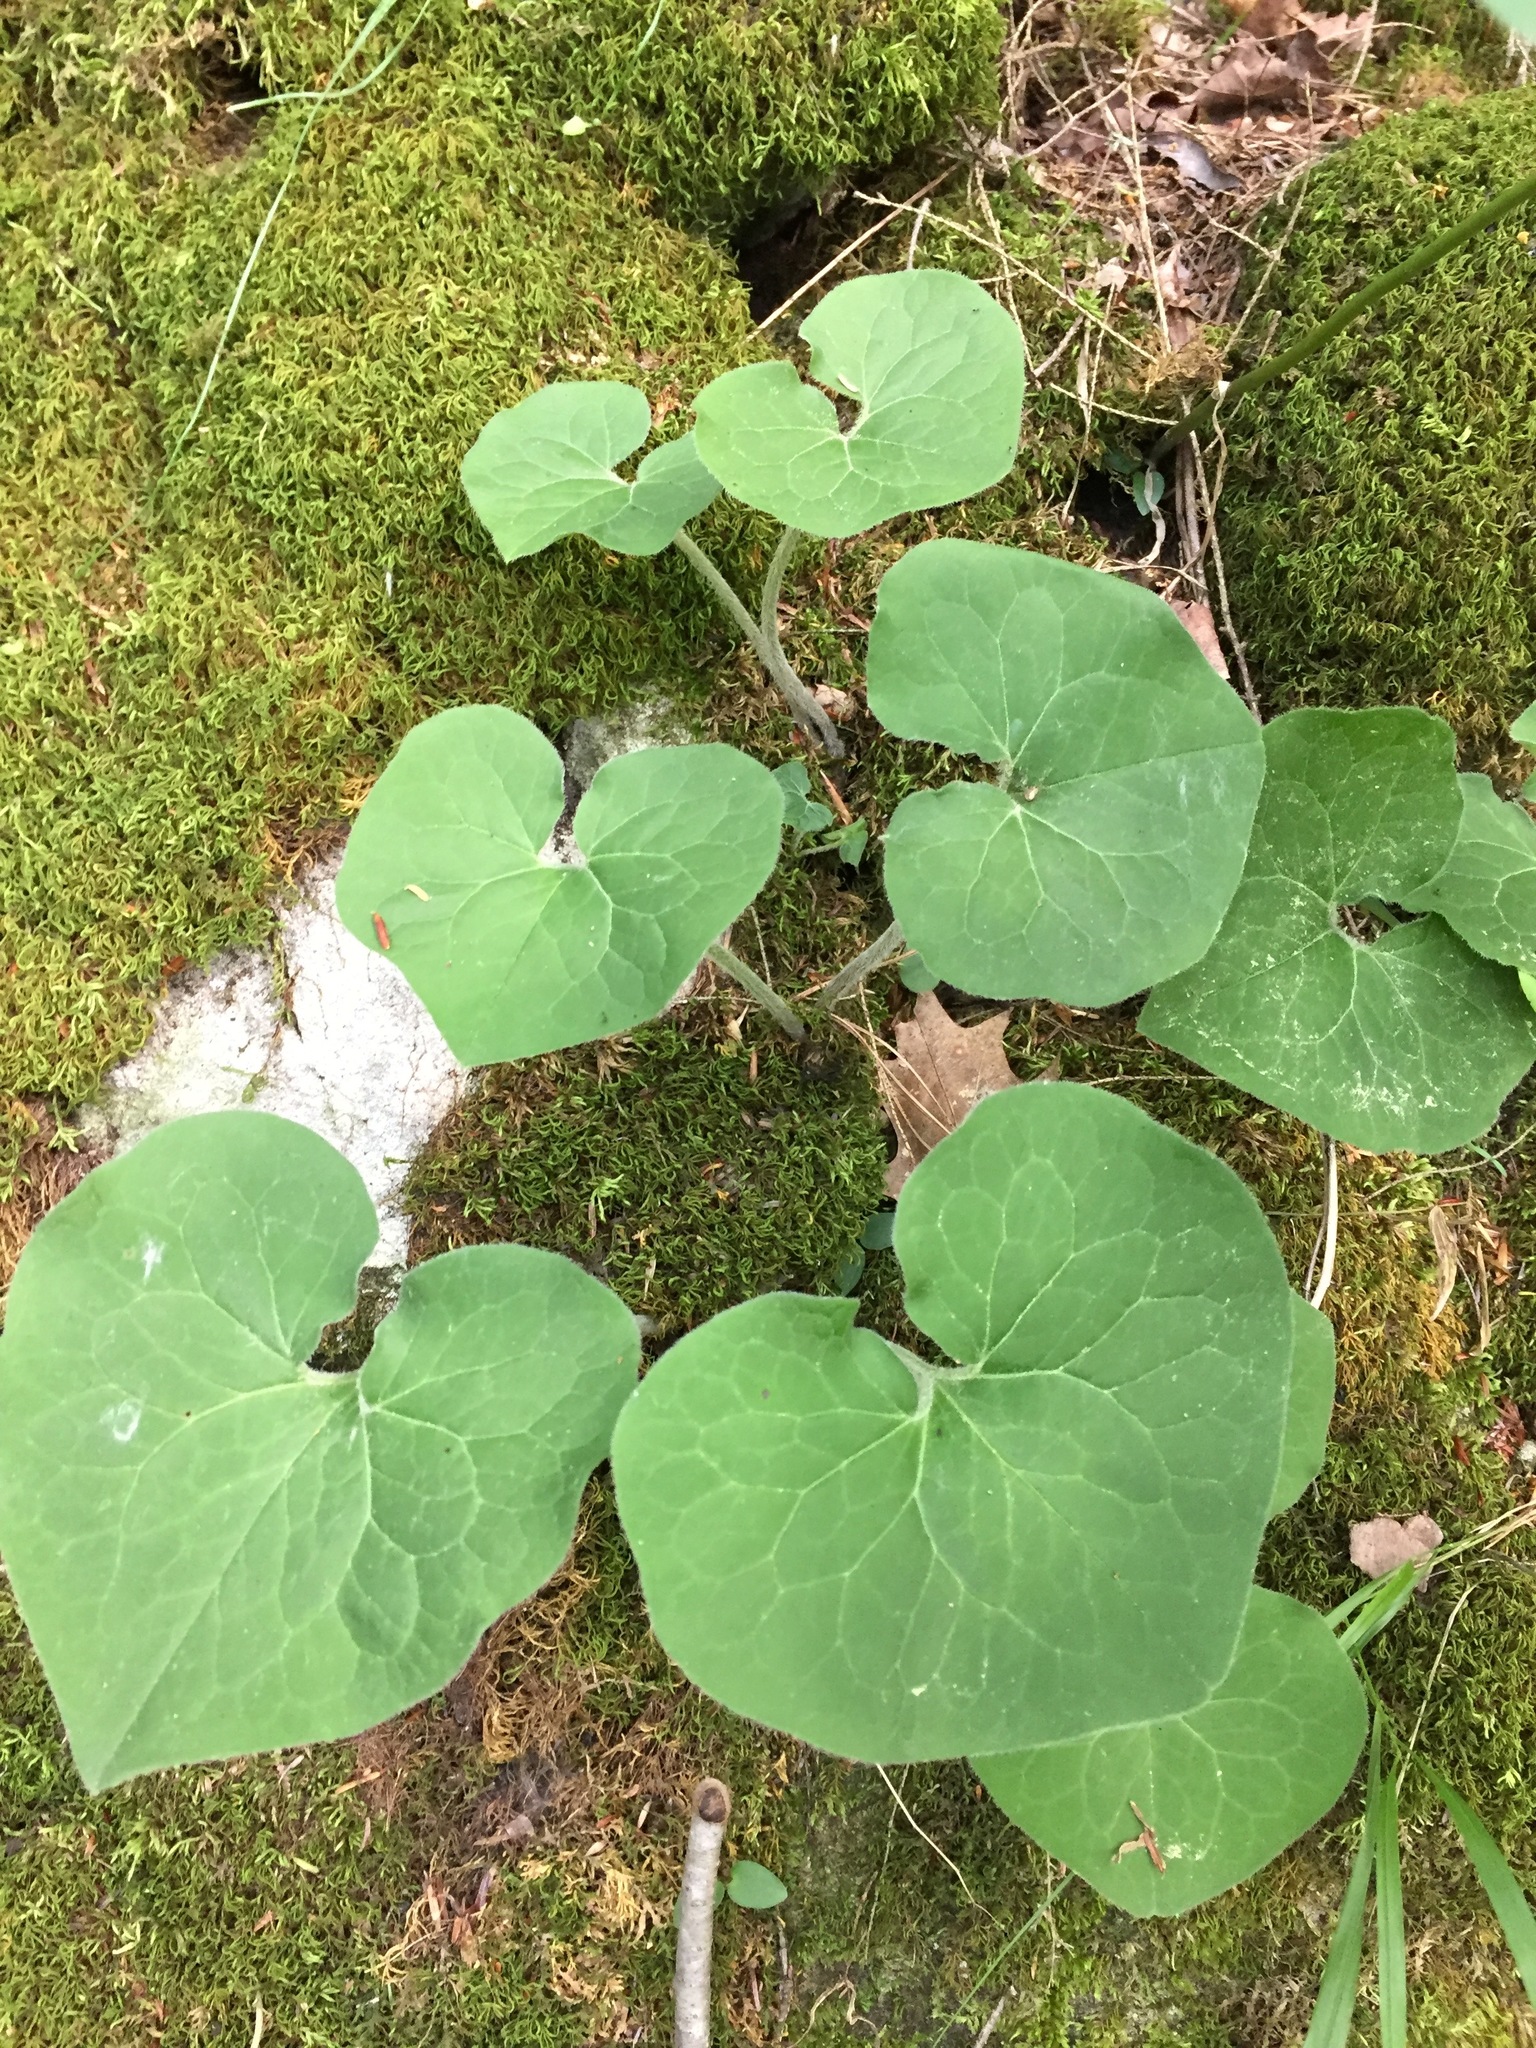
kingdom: Plantae
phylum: Tracheophyta
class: Magnoliopsida
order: Piperales
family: Aristolochiaceae
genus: Asarum
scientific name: Asarum canadense
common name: Wild ginger
